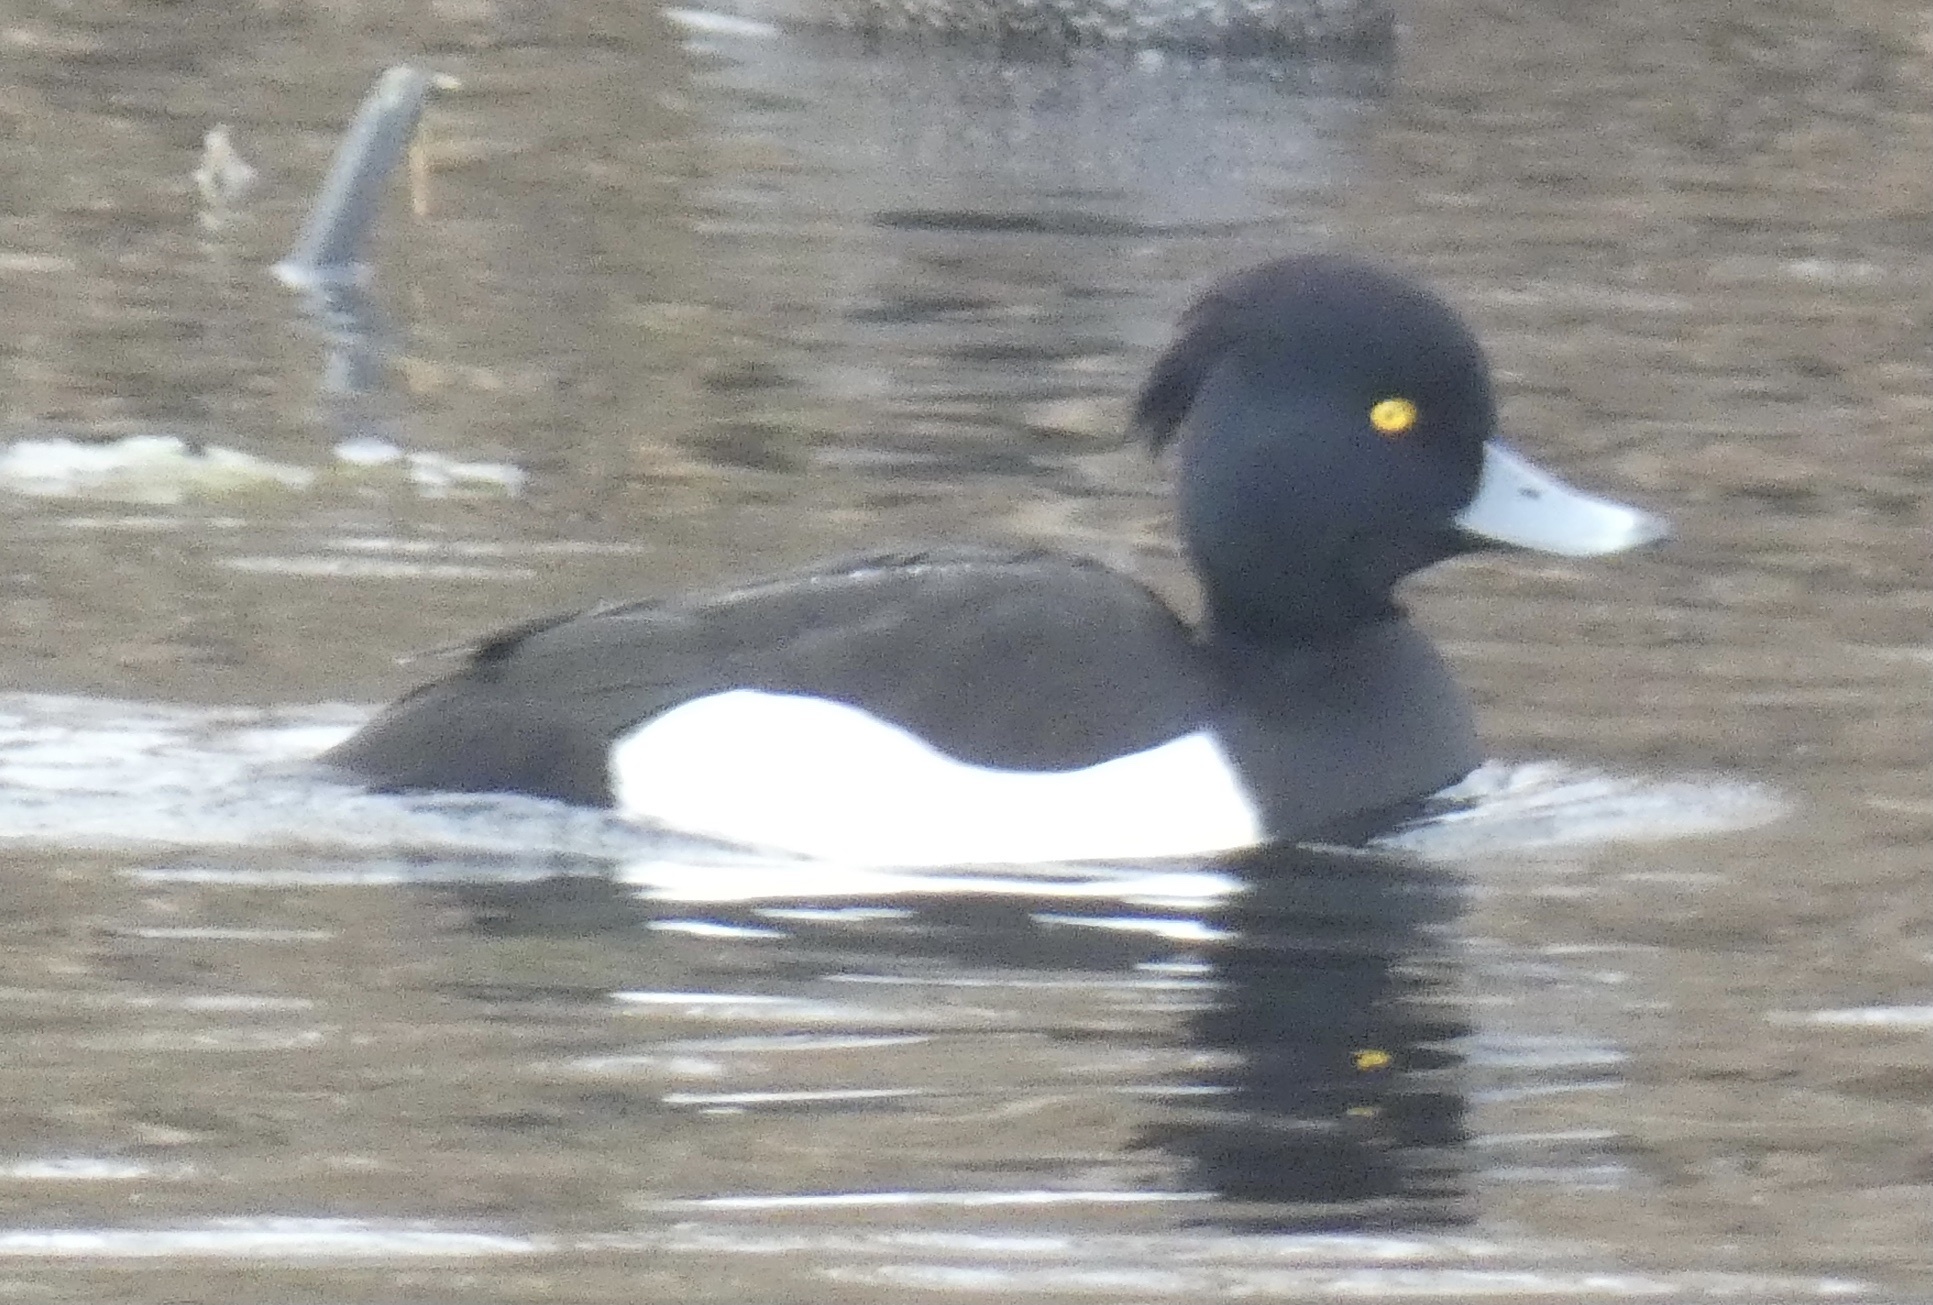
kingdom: Animalia
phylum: Chordata
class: Aves
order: Anseriformes
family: Anatidae
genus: Aythya
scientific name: Aythya fuligula
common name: Tufted duck
